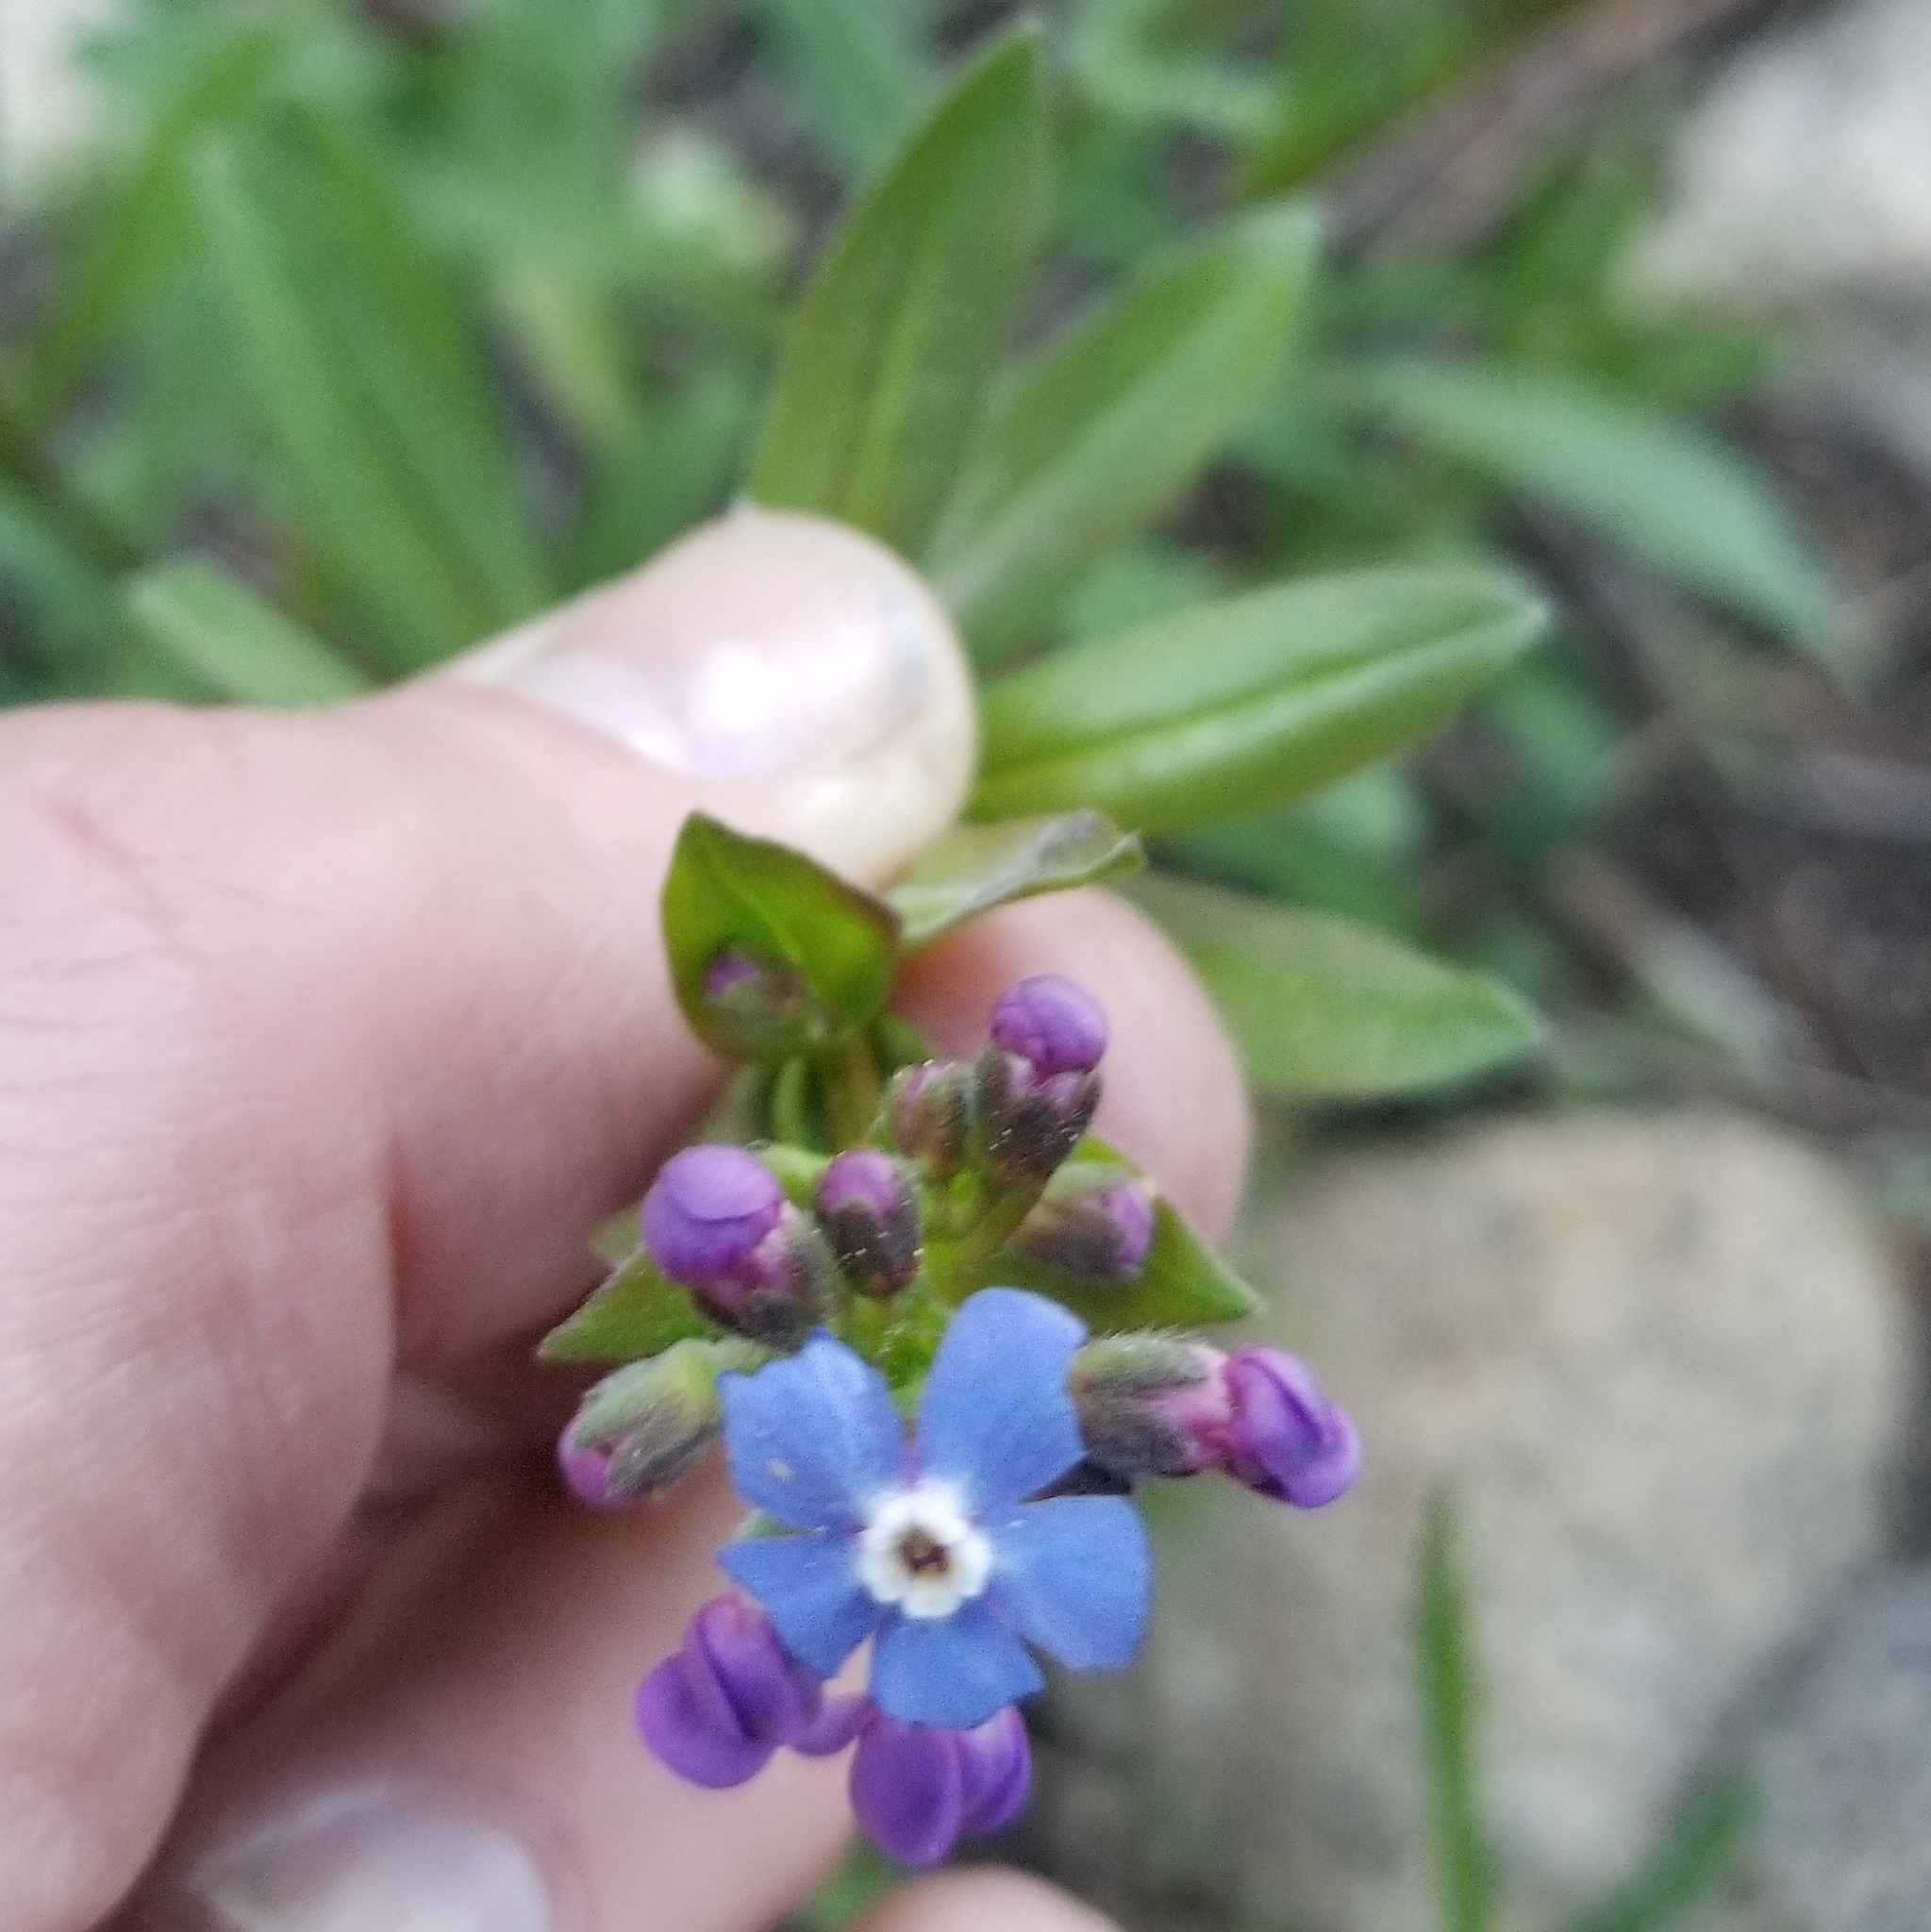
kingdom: Plantae
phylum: Tracheophyta
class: Magnoliopsida
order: Boraginales
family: Boraginaceae
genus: Hackelia
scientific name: Hackelia velutina
